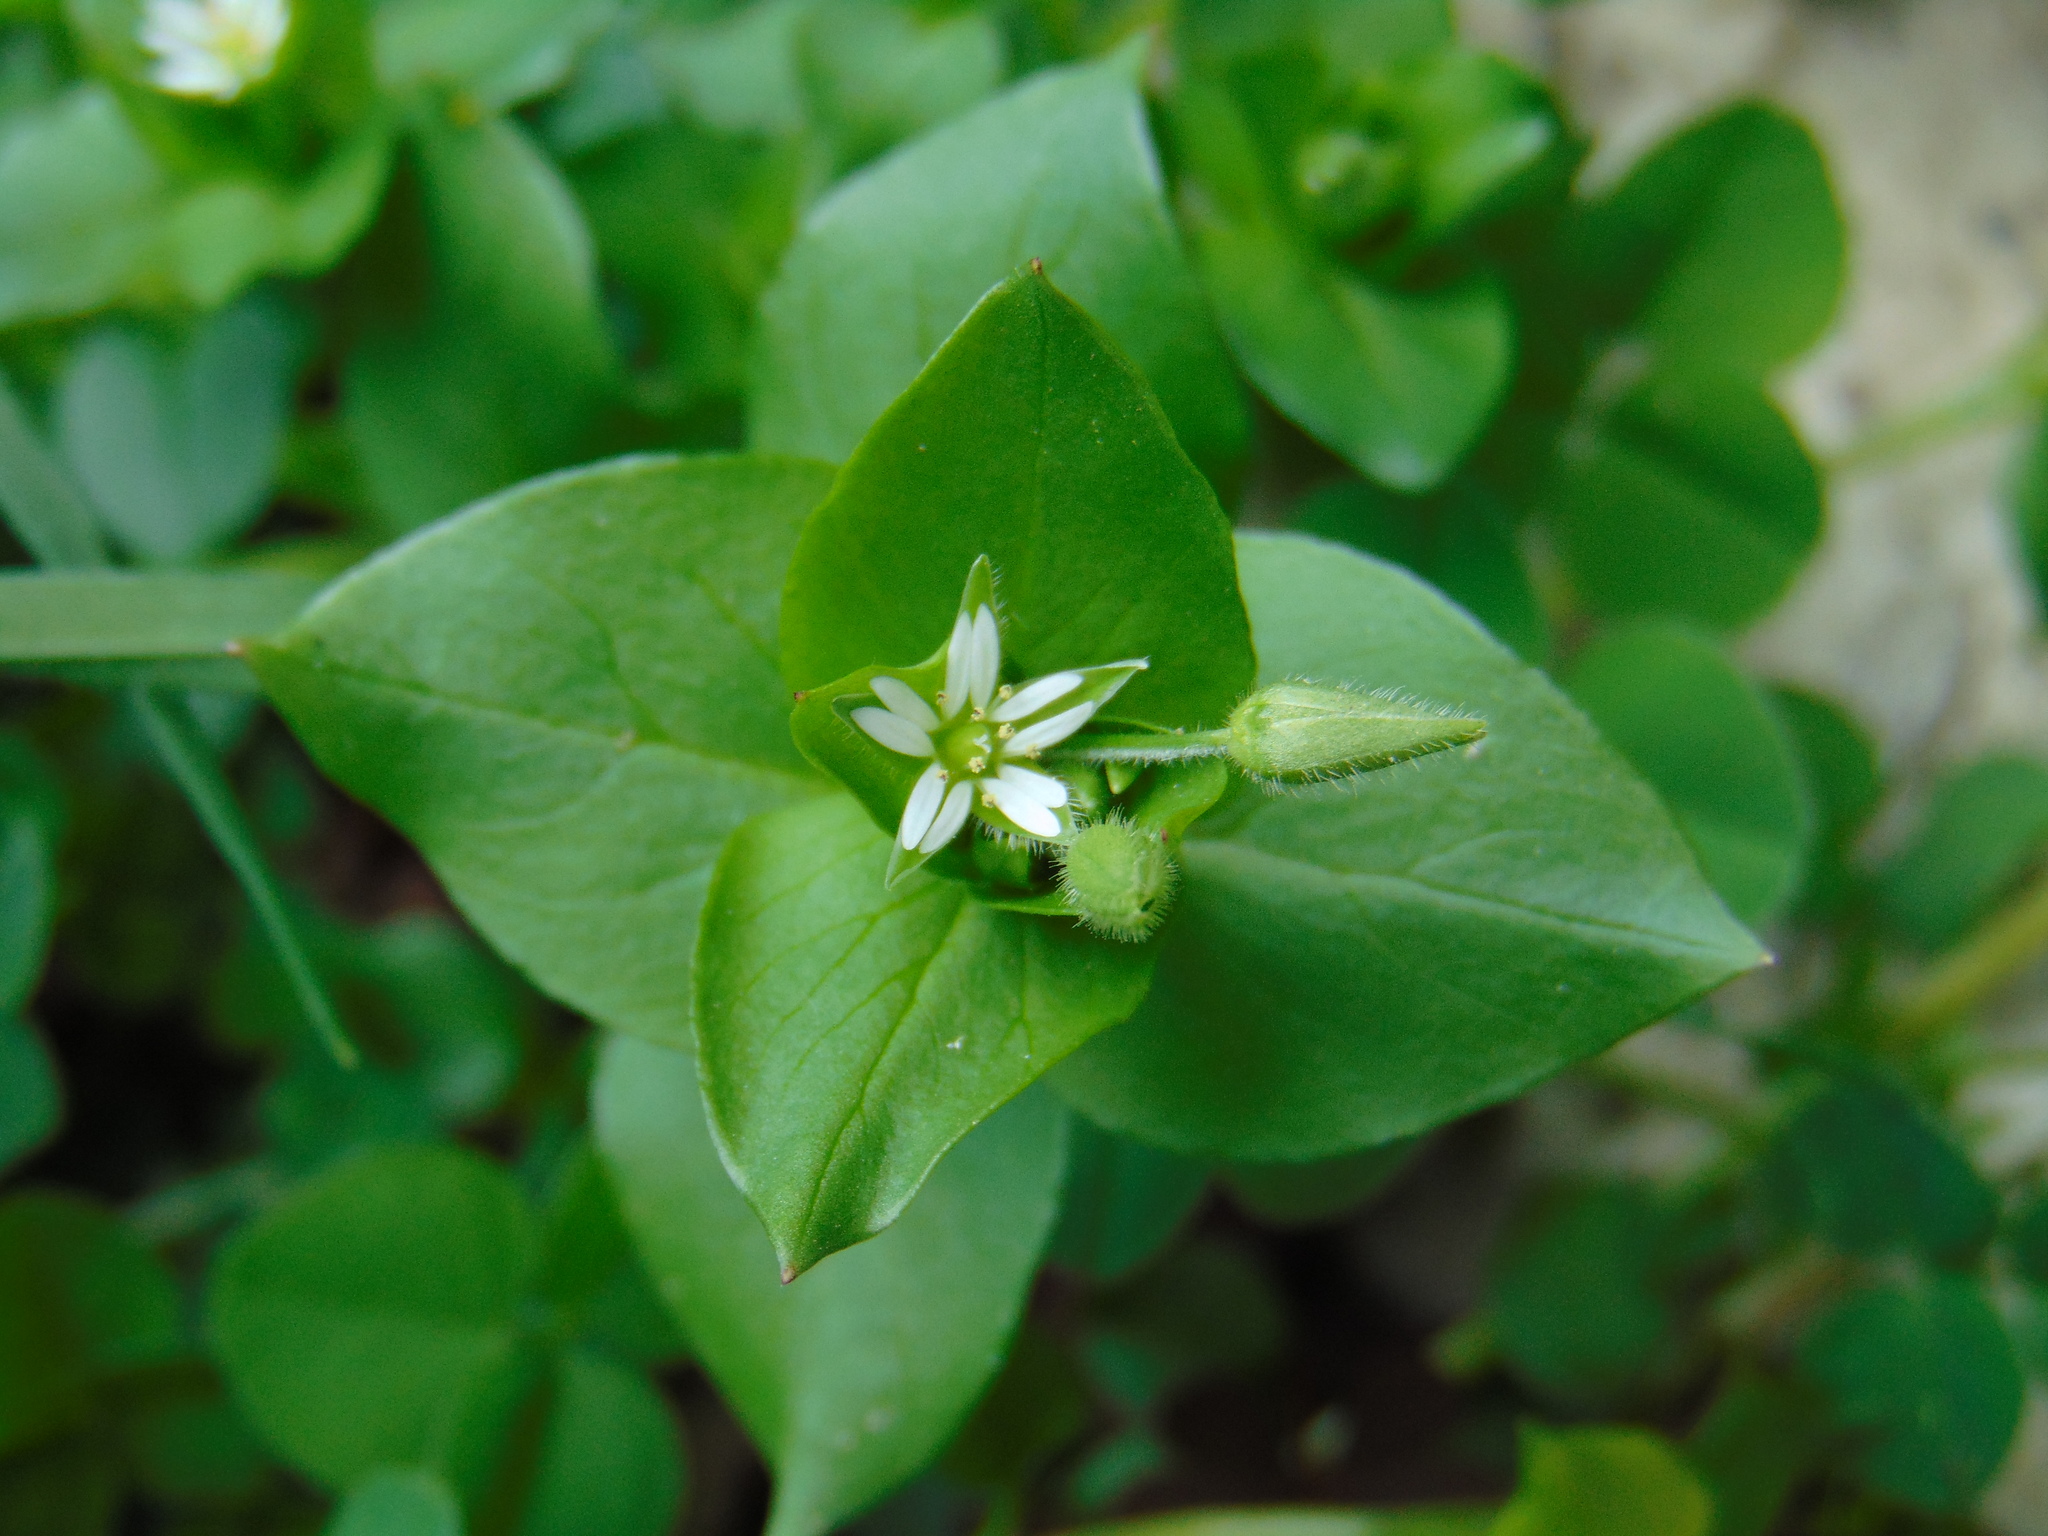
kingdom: Plantae
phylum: Tracheophyta
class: Magnoliopsida
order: Caryophyllales
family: Caryophyllaceae
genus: Stellaria
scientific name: Stellaria media
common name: Common chickweed
